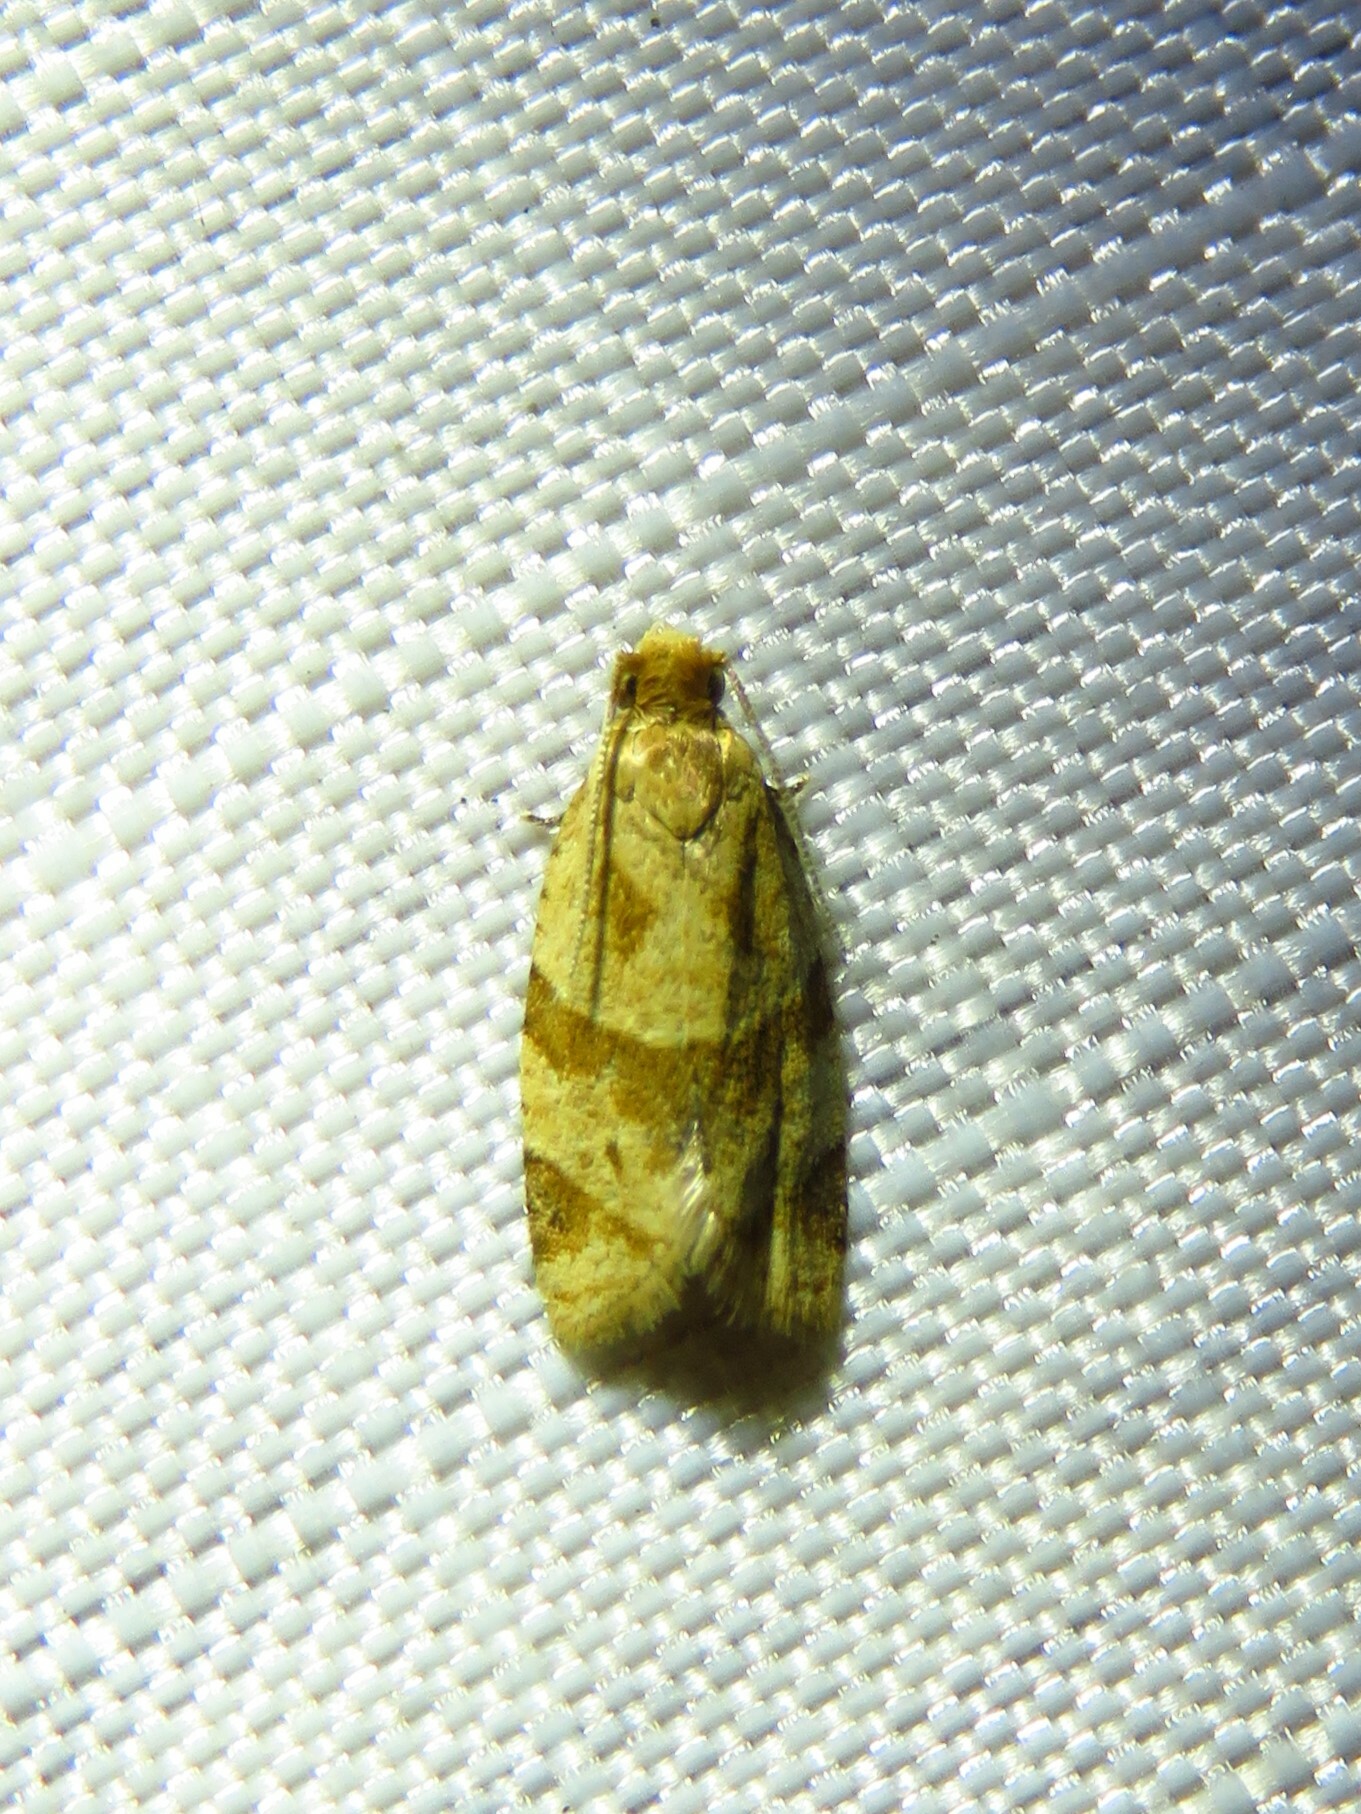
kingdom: Animalia
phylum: Arthropoda
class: Insecta
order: Lepidoptera
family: Tortricidae
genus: Clepsis
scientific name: Clepsis peritana
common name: Garden tortrix
